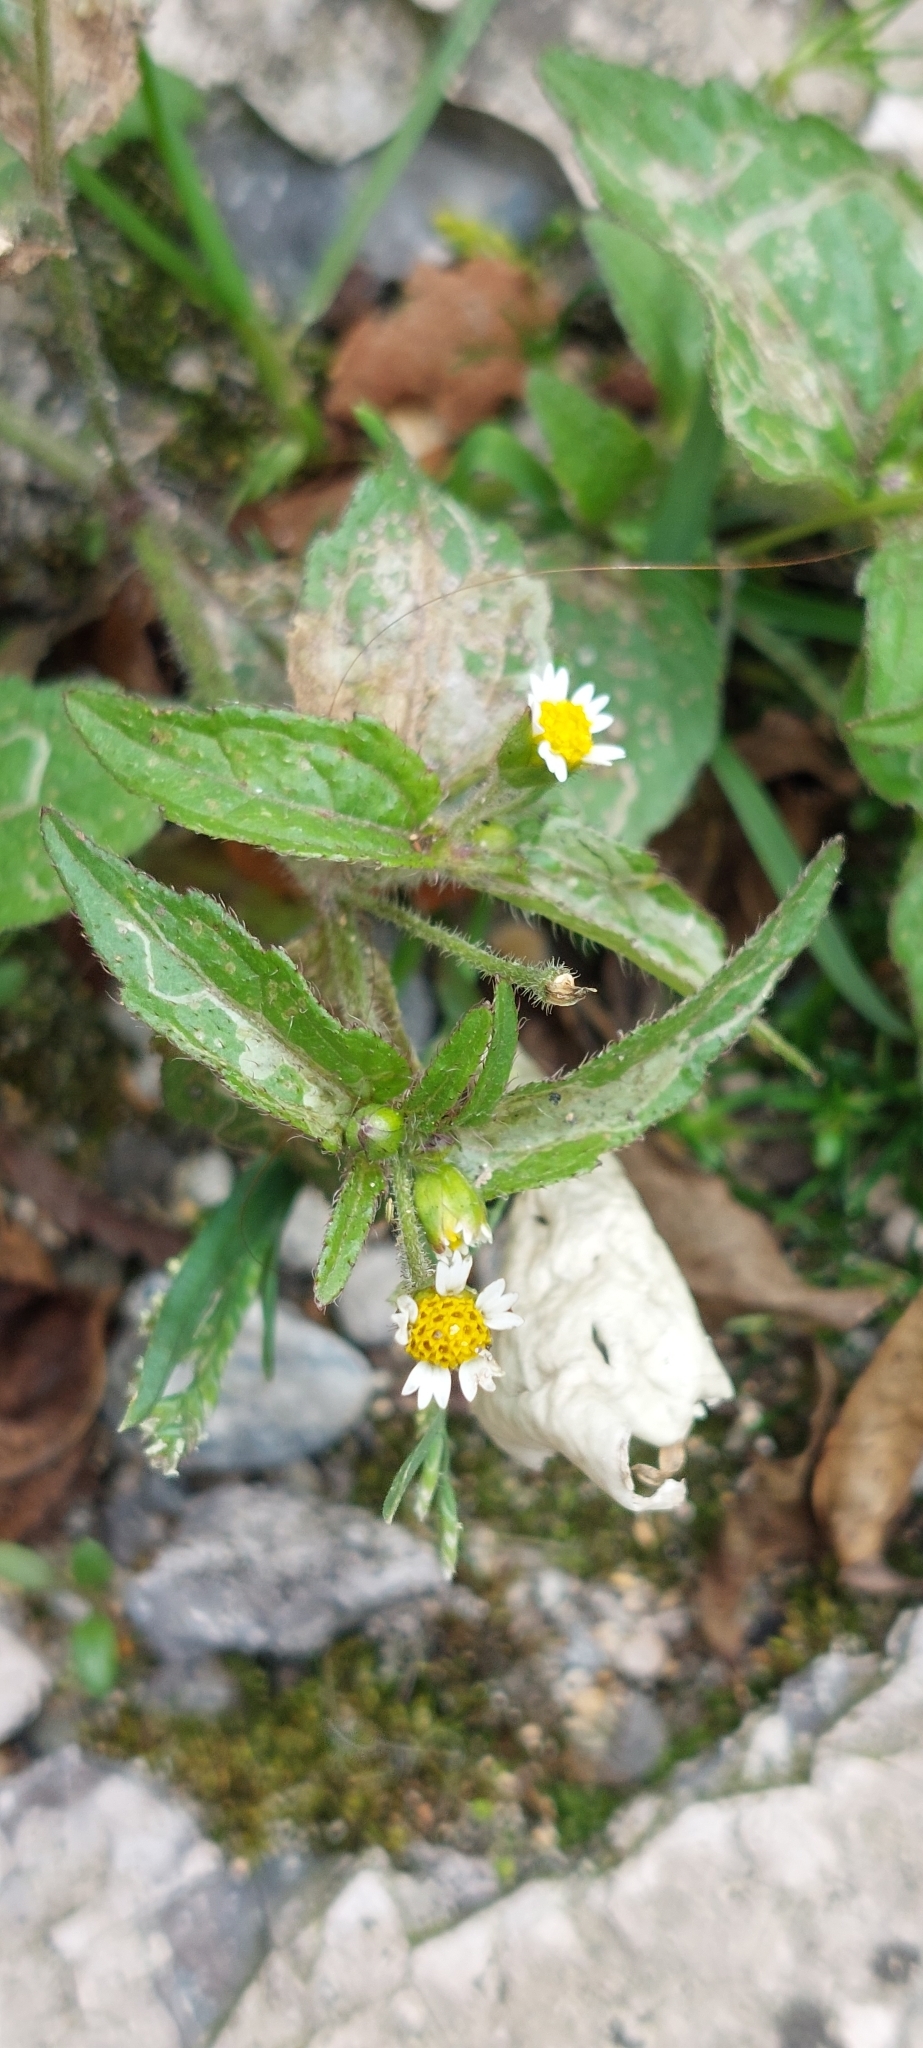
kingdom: Plantae
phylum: Tracheophyta
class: Magnoliopsida
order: Asterales
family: Asteraceae
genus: Galinsoga
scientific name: Galinsoga quadriradiata
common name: Shaggy soldier
